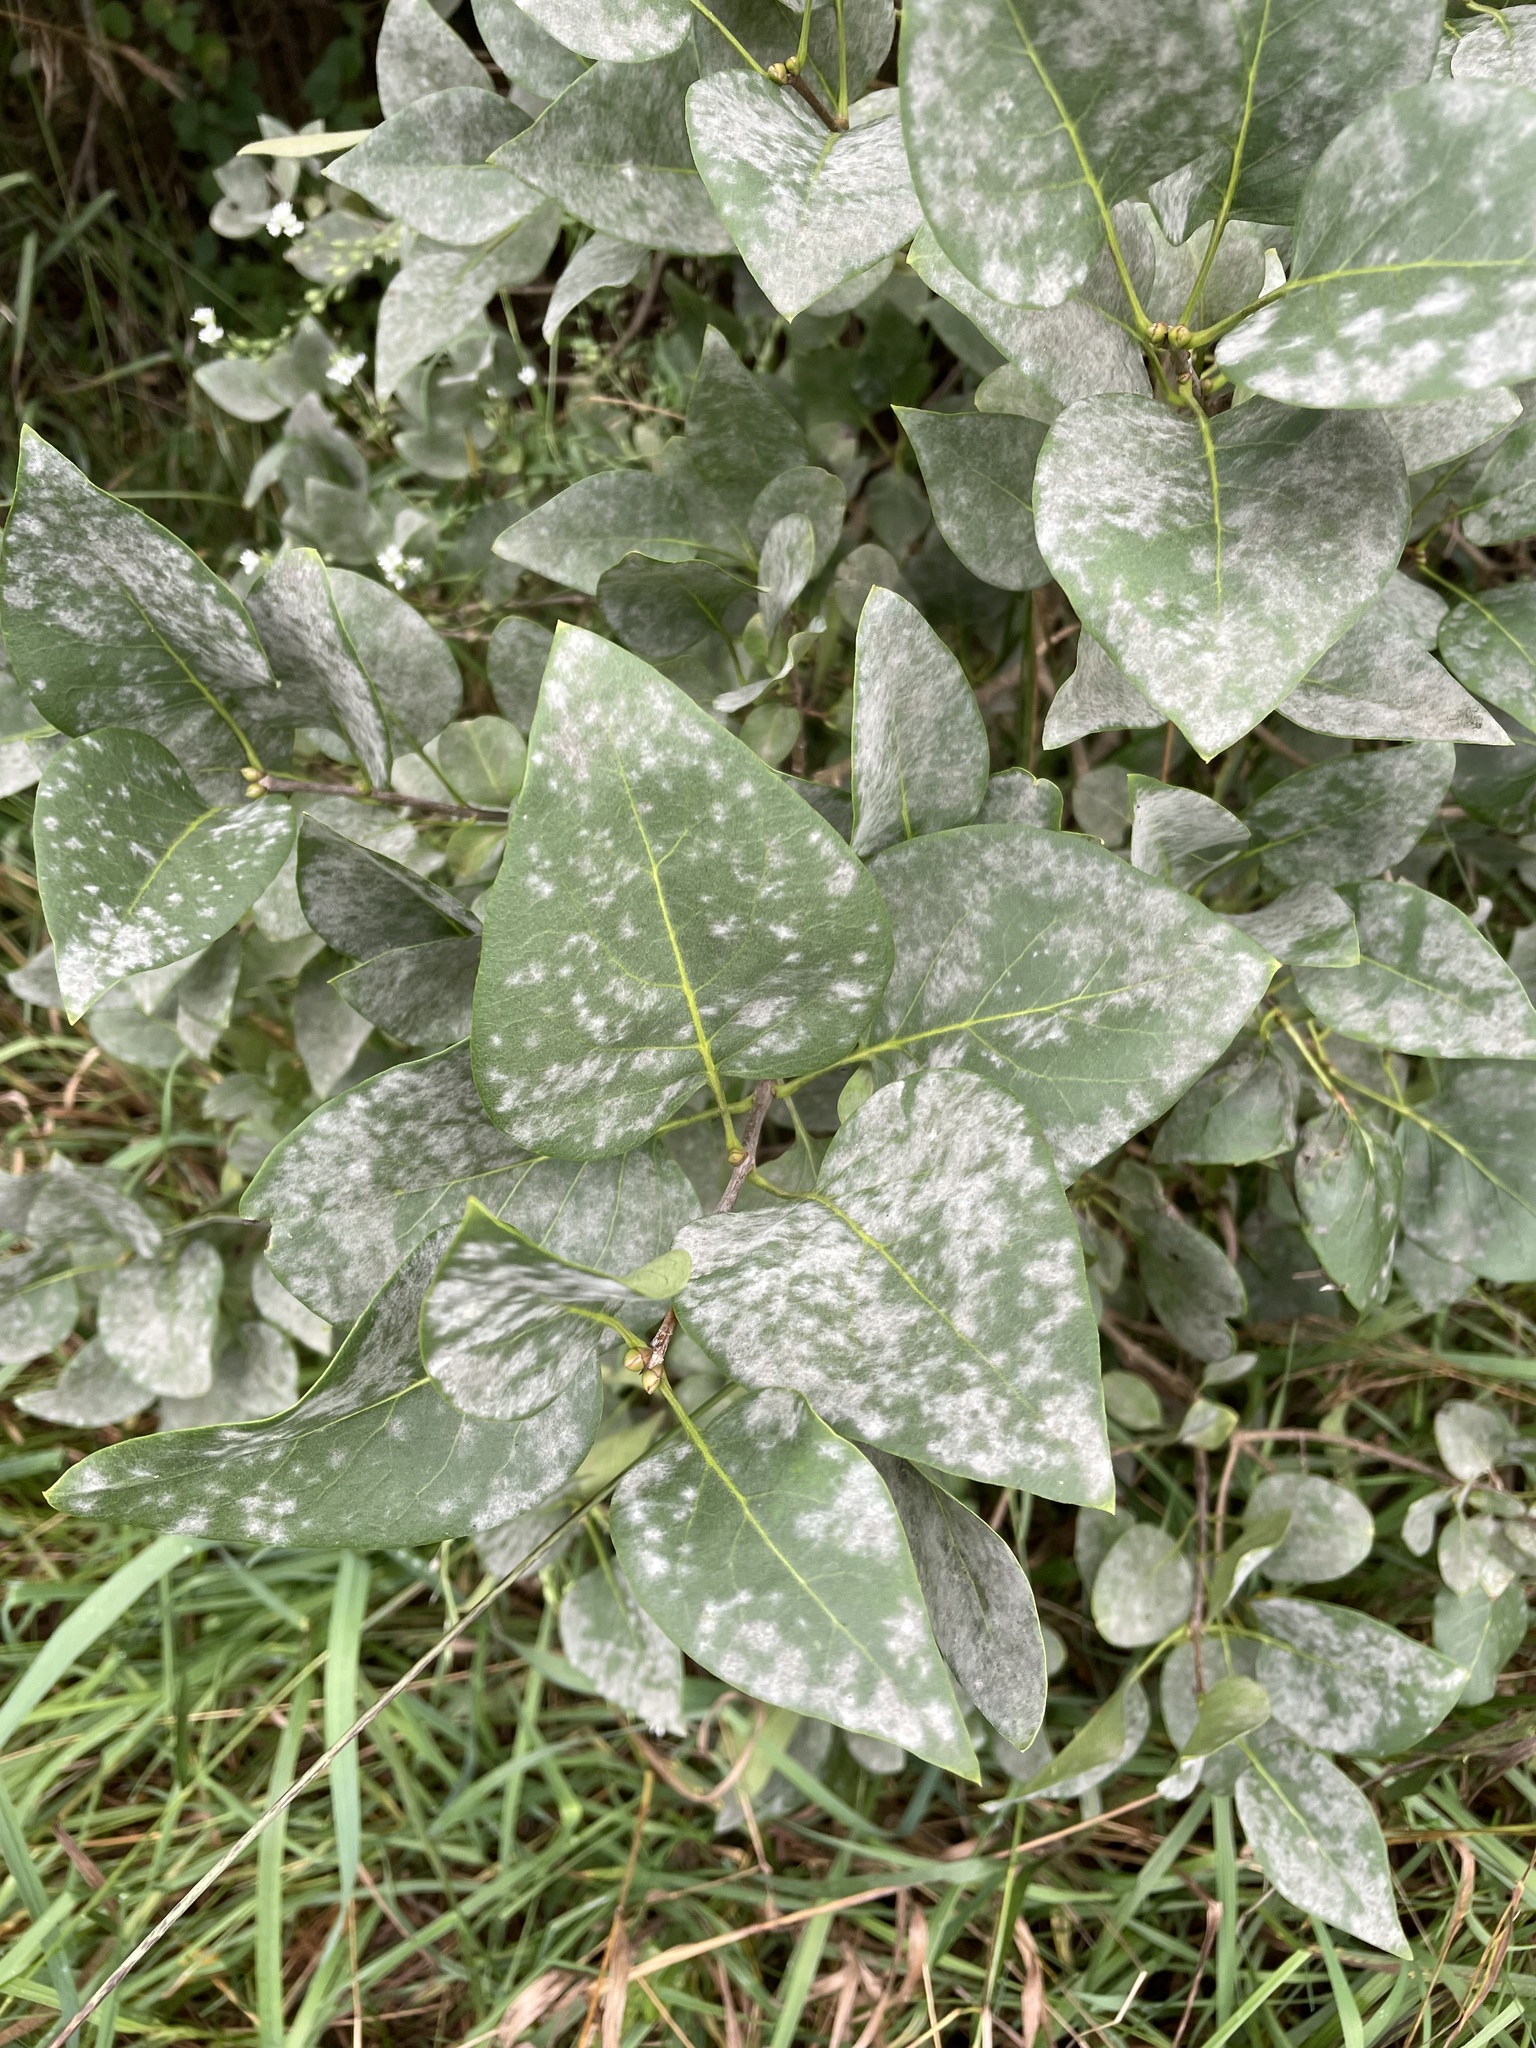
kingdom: Plantae
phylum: Tracheophyta
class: Magnoliopsida
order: Lamiales
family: Oleaceae
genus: Syringa
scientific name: Syringa vulgaris
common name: Common lilac
